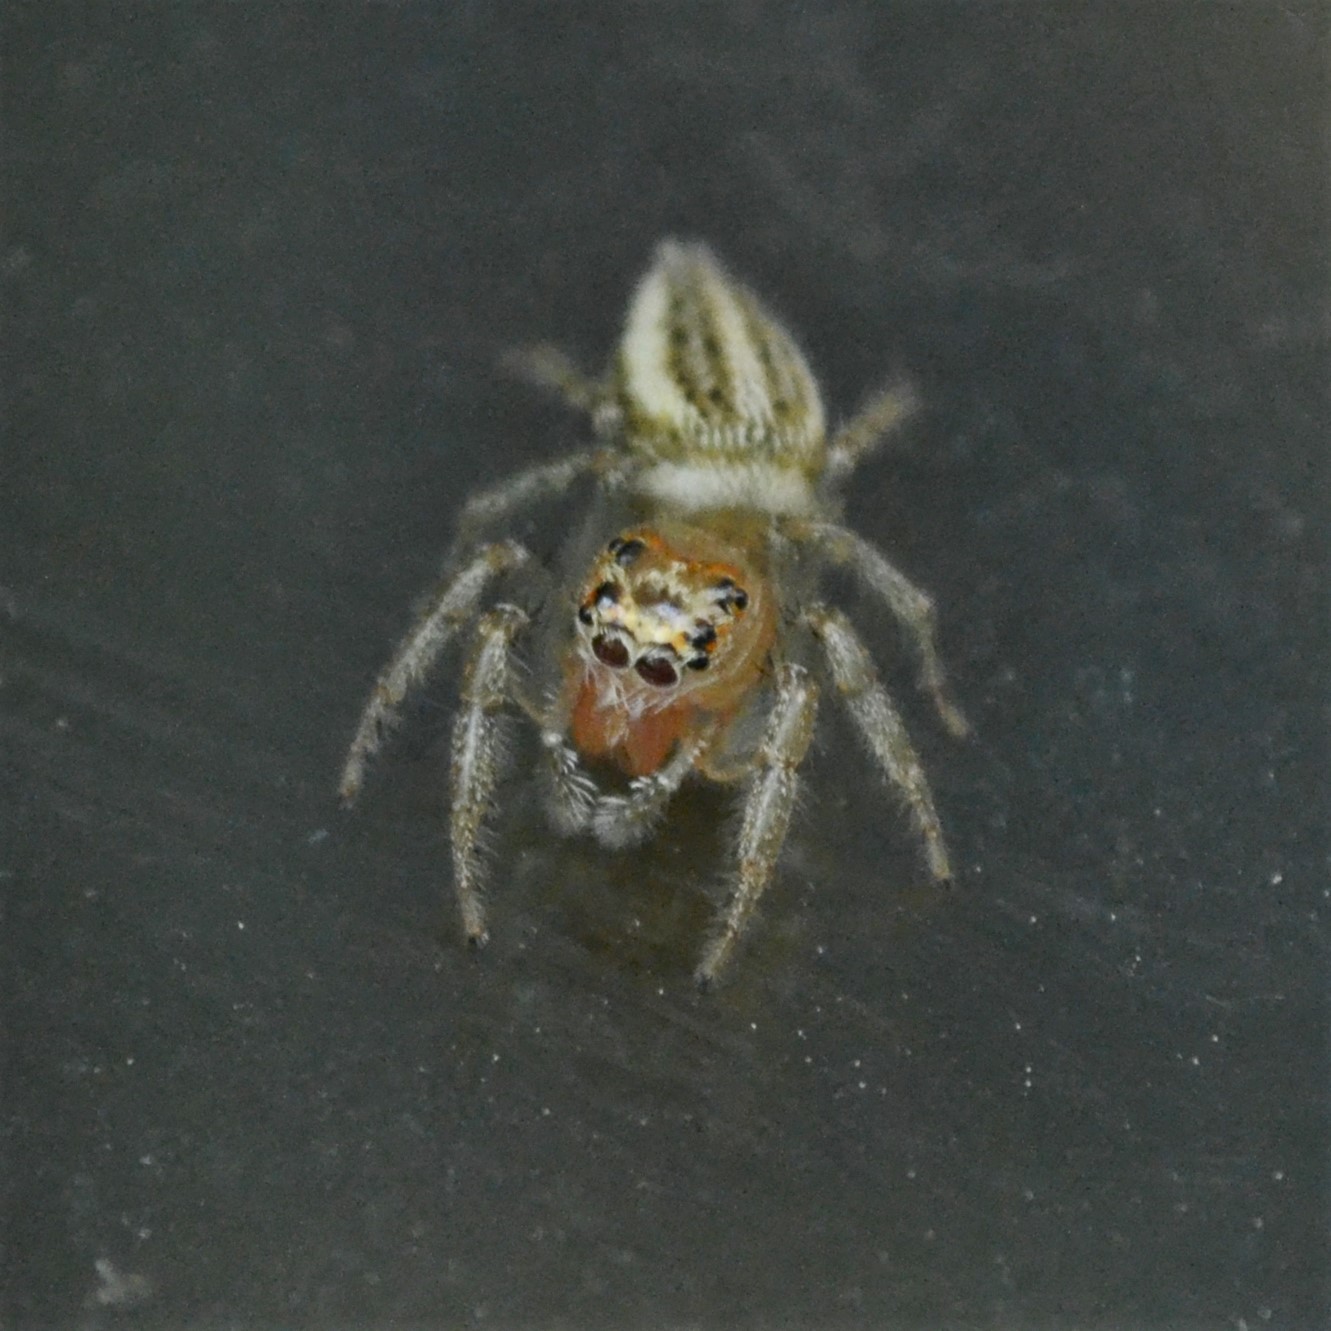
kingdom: Animalia
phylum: Arthropoda
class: Arachnida
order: Araneae
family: Salticidae
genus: Colonus
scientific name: Colonus sylvanus
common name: Jumping spiders
